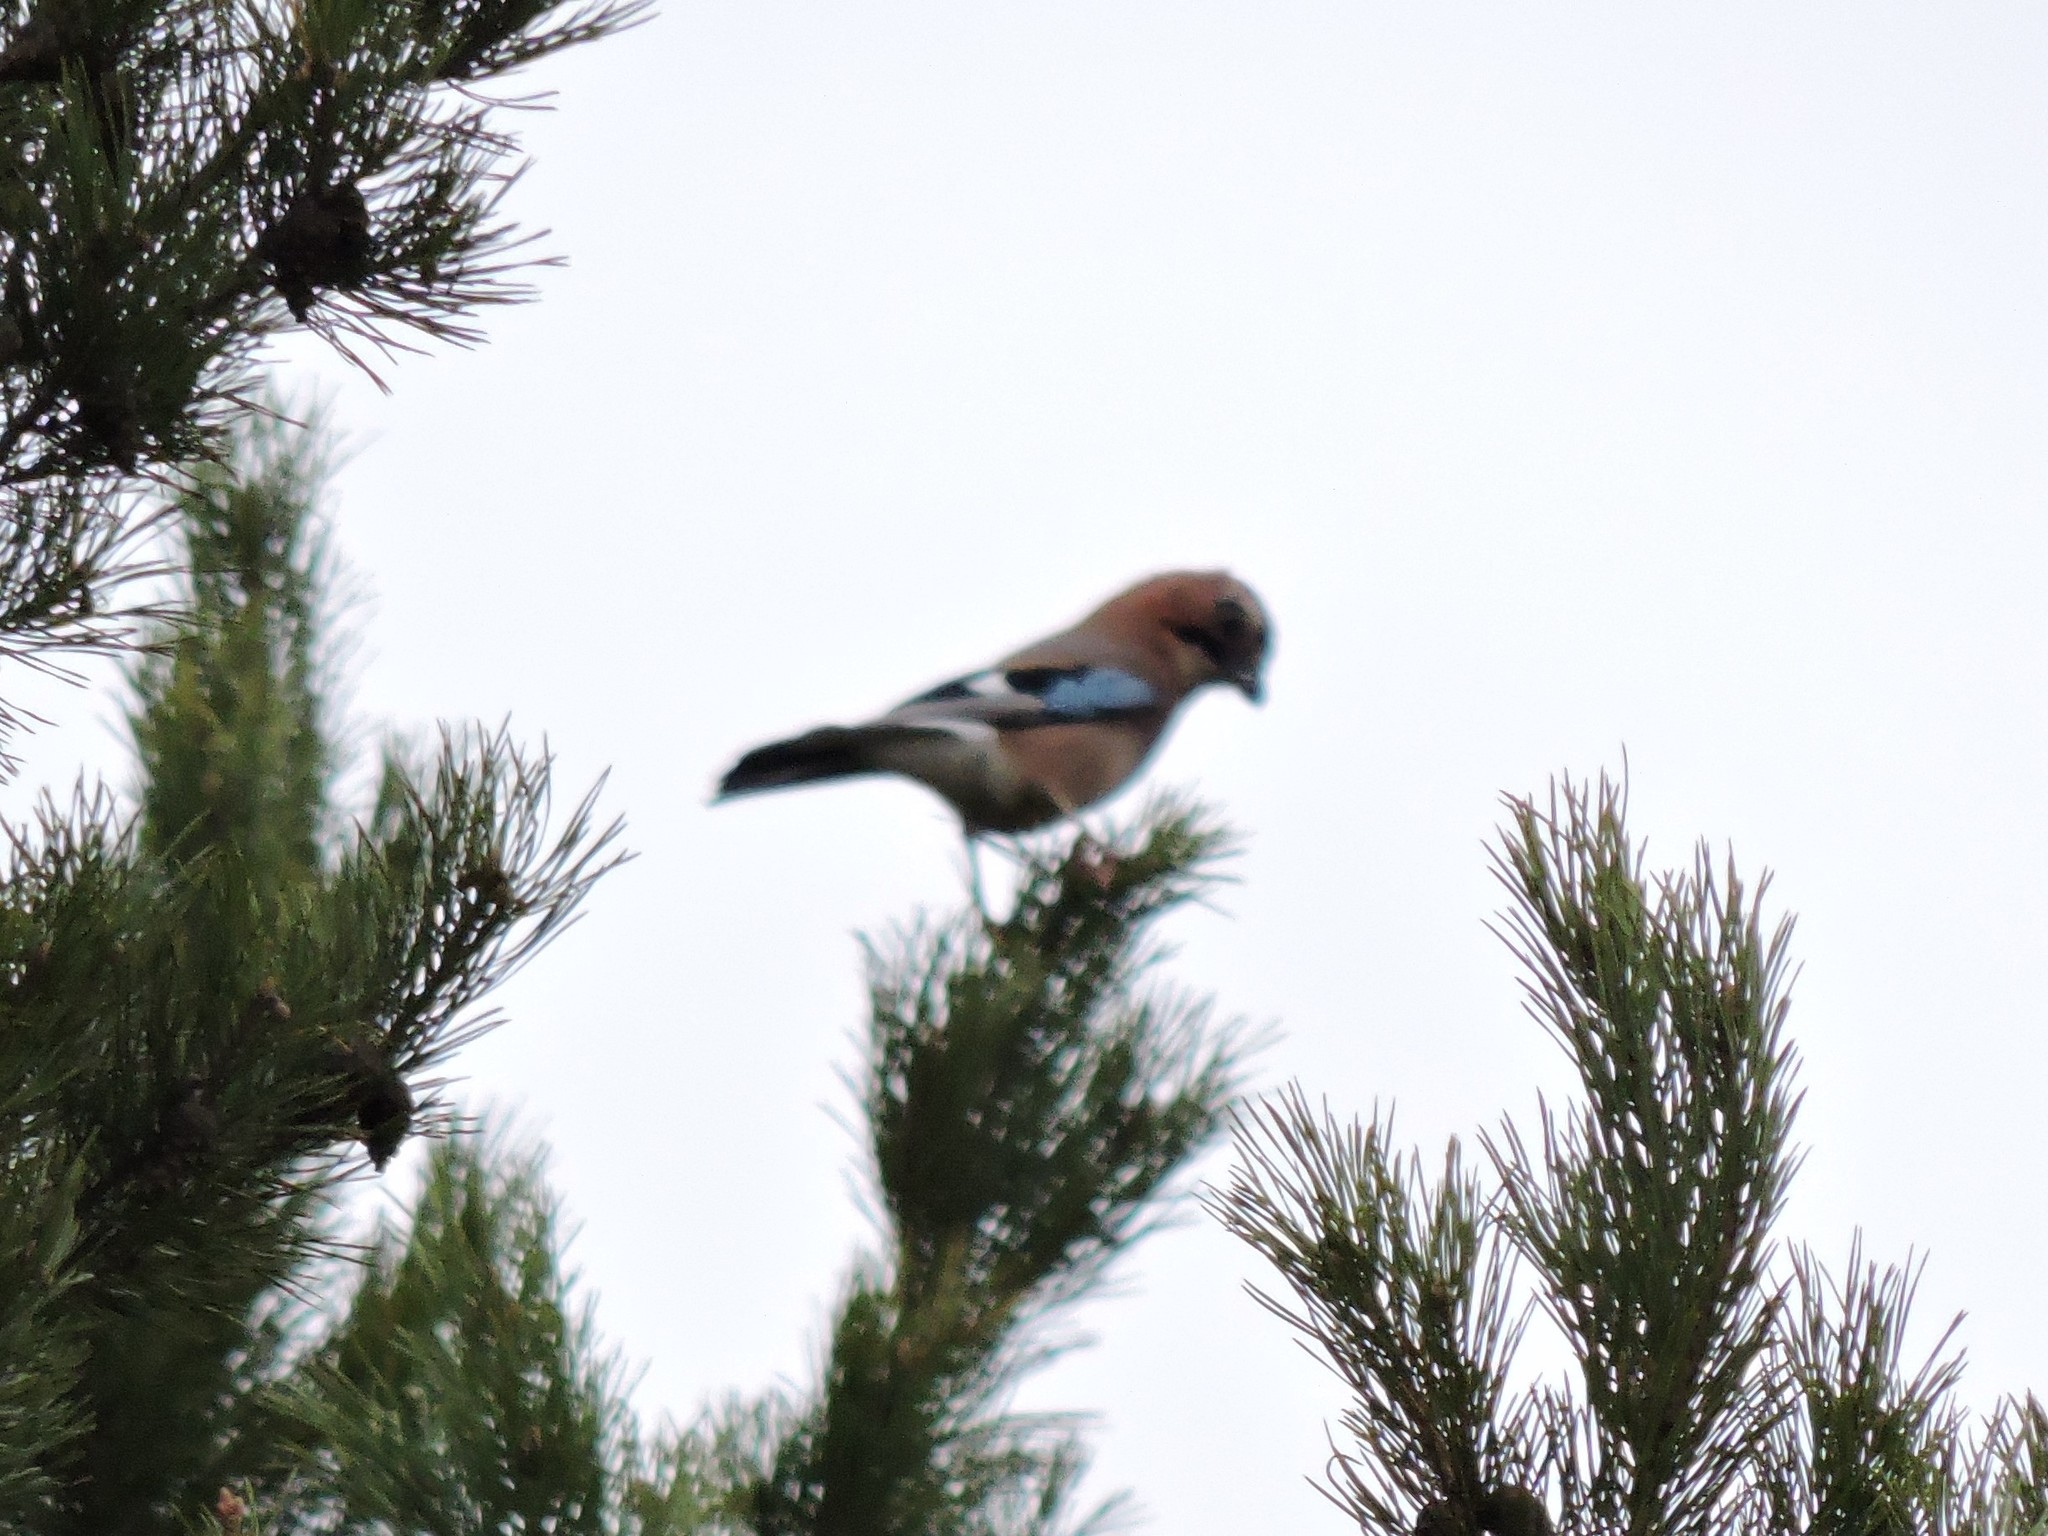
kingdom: Animalia
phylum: Chordata
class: Aves
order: Passeriformes
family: Corvidae
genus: Garrulus
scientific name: Garrulus glandarius
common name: Eurasian jay
